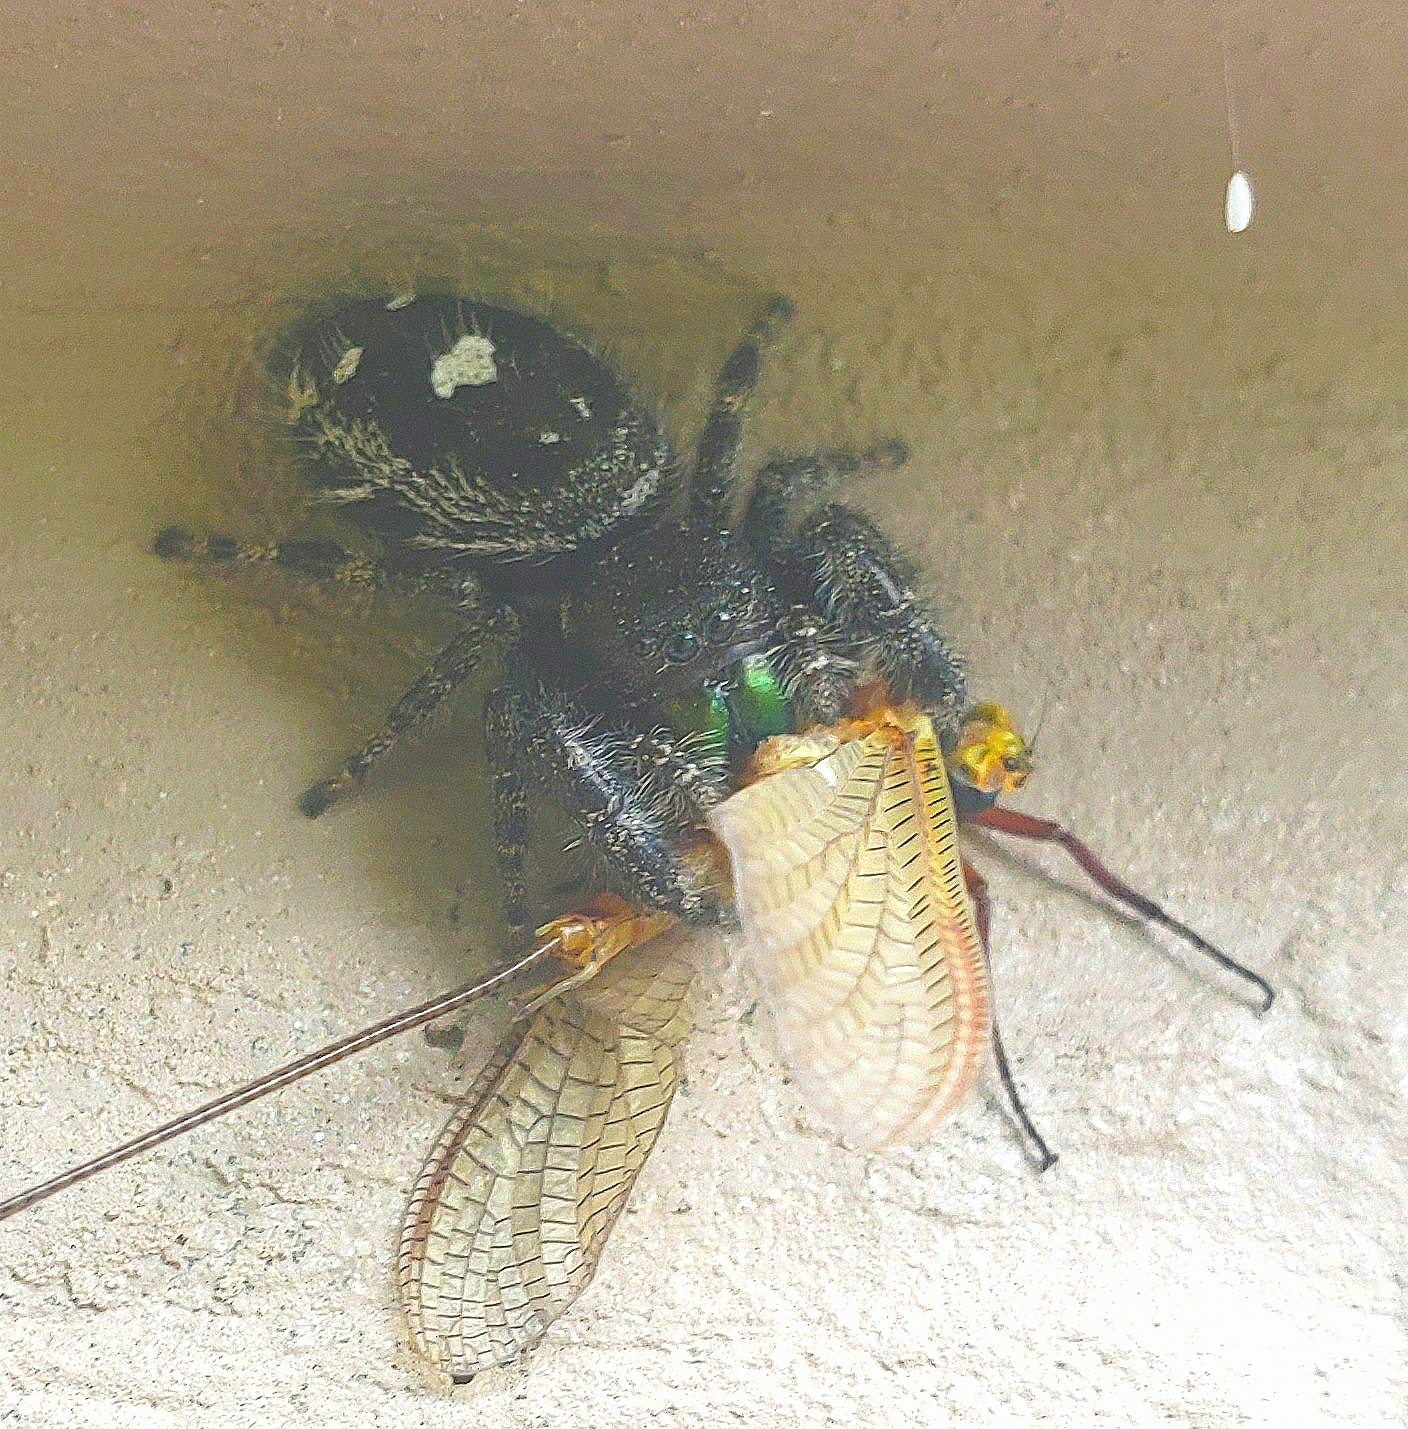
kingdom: Animalia
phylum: Arthropoda
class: Arachnida
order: Araneae
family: Salticidae
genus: Phidippus
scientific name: Phidippus audax
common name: Bold jumper
